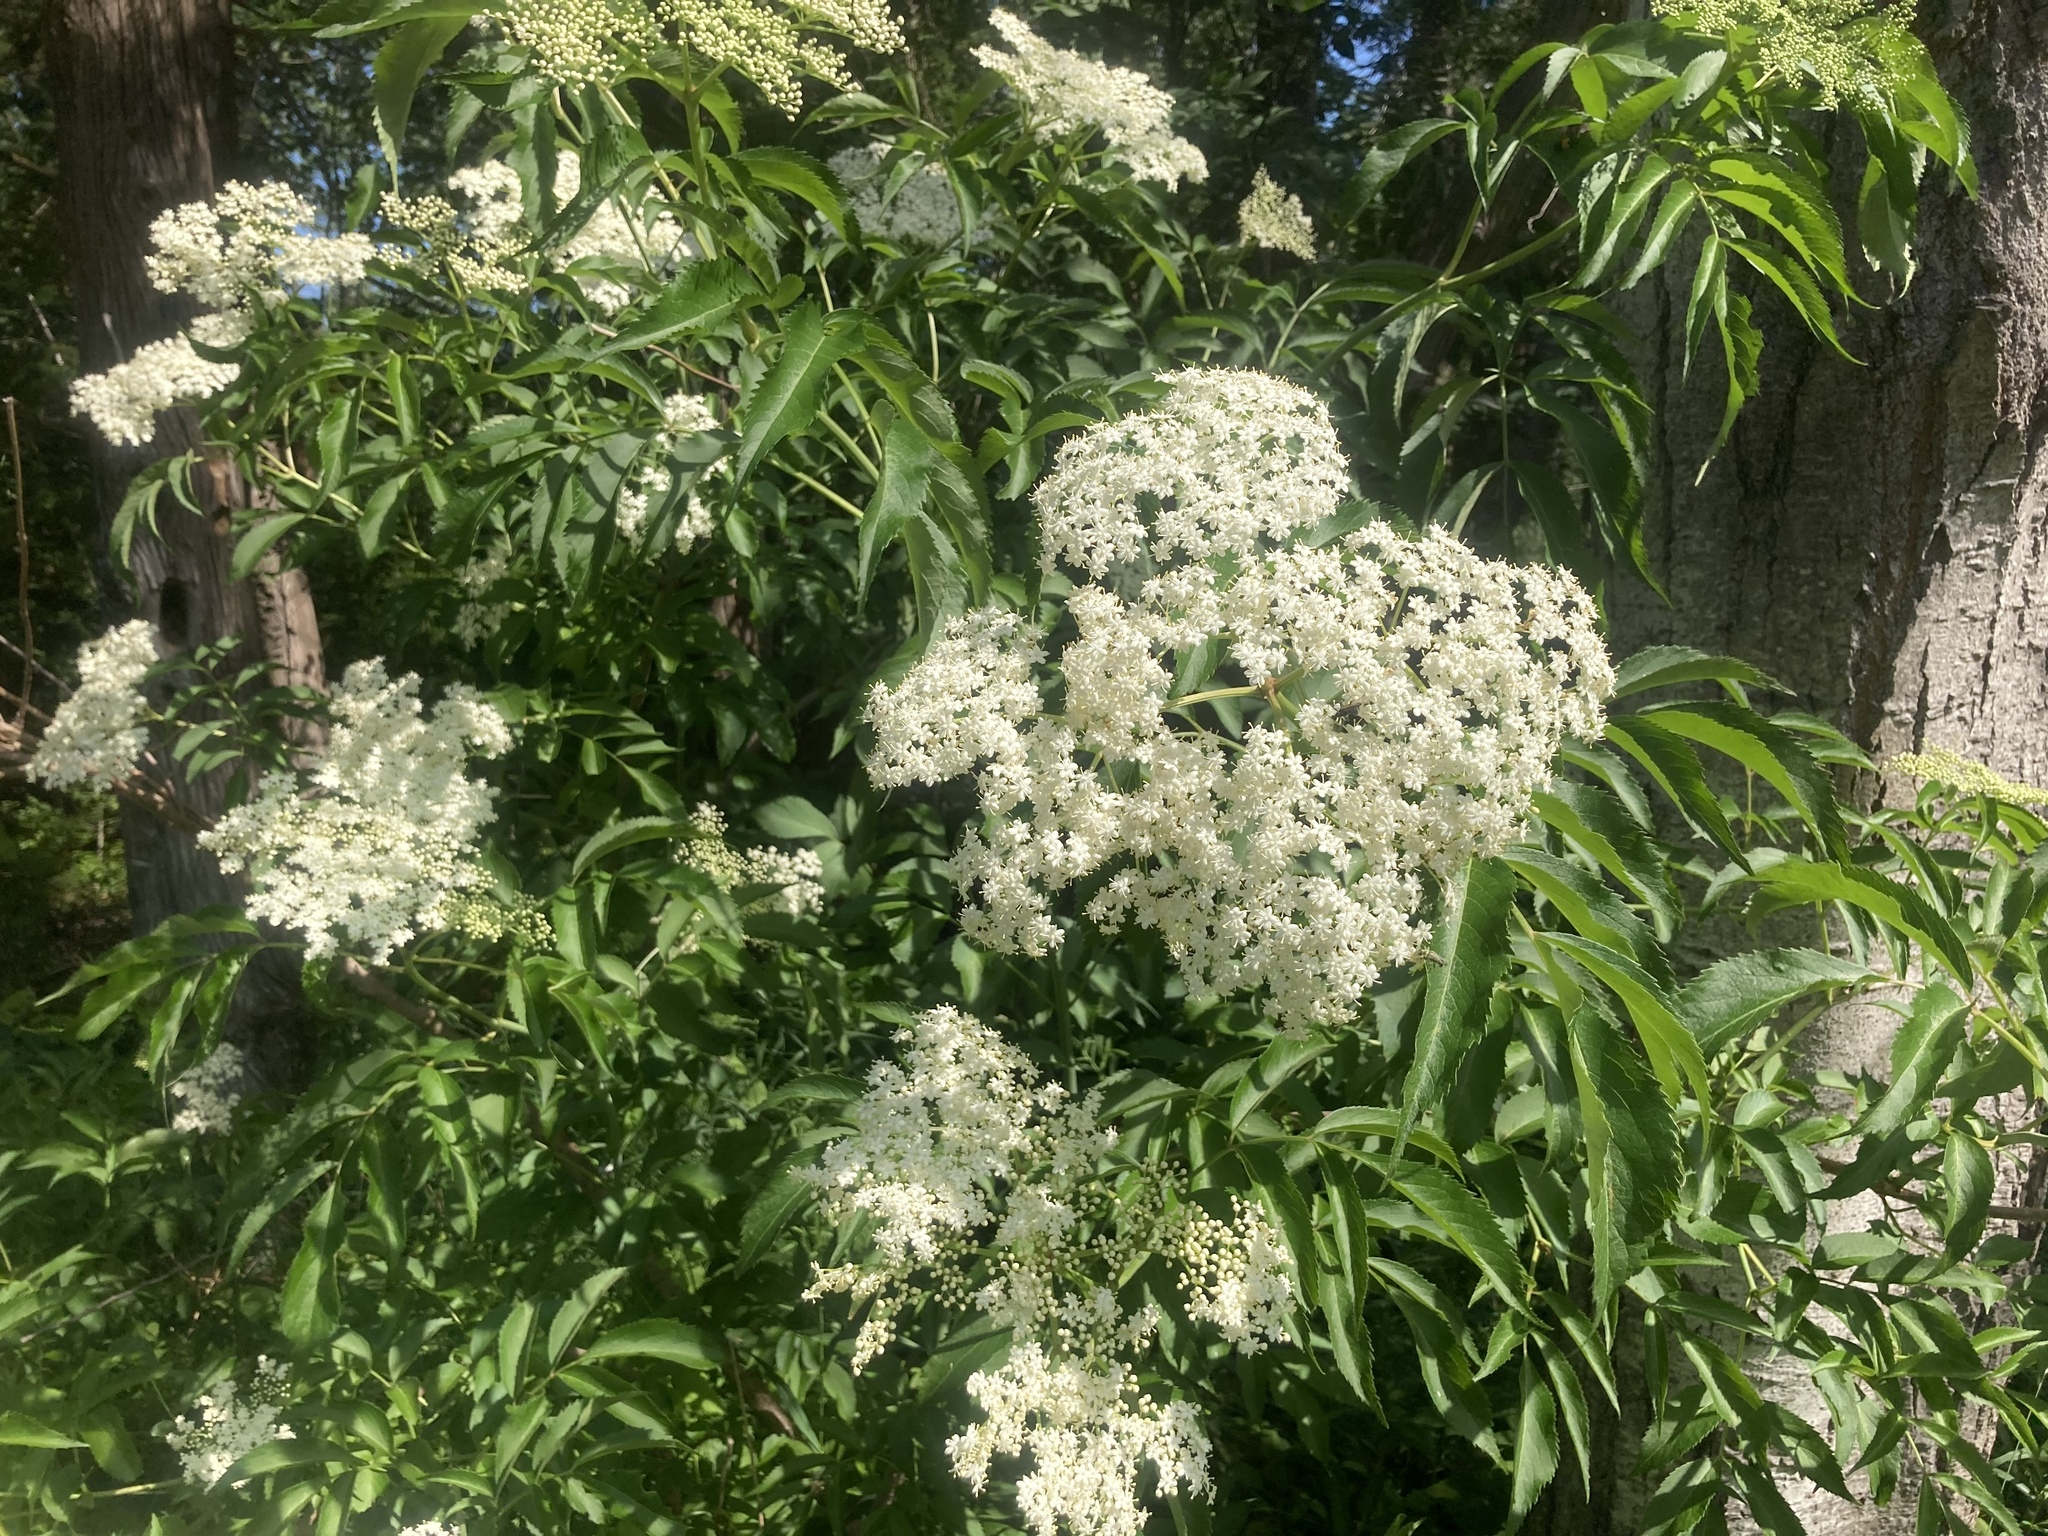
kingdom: Plantae
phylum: Tracheophyta
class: Magnoliopsida
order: Dipsacales
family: Viburnaceae
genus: Sambucus
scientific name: Sambucus canadensis
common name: American elder
